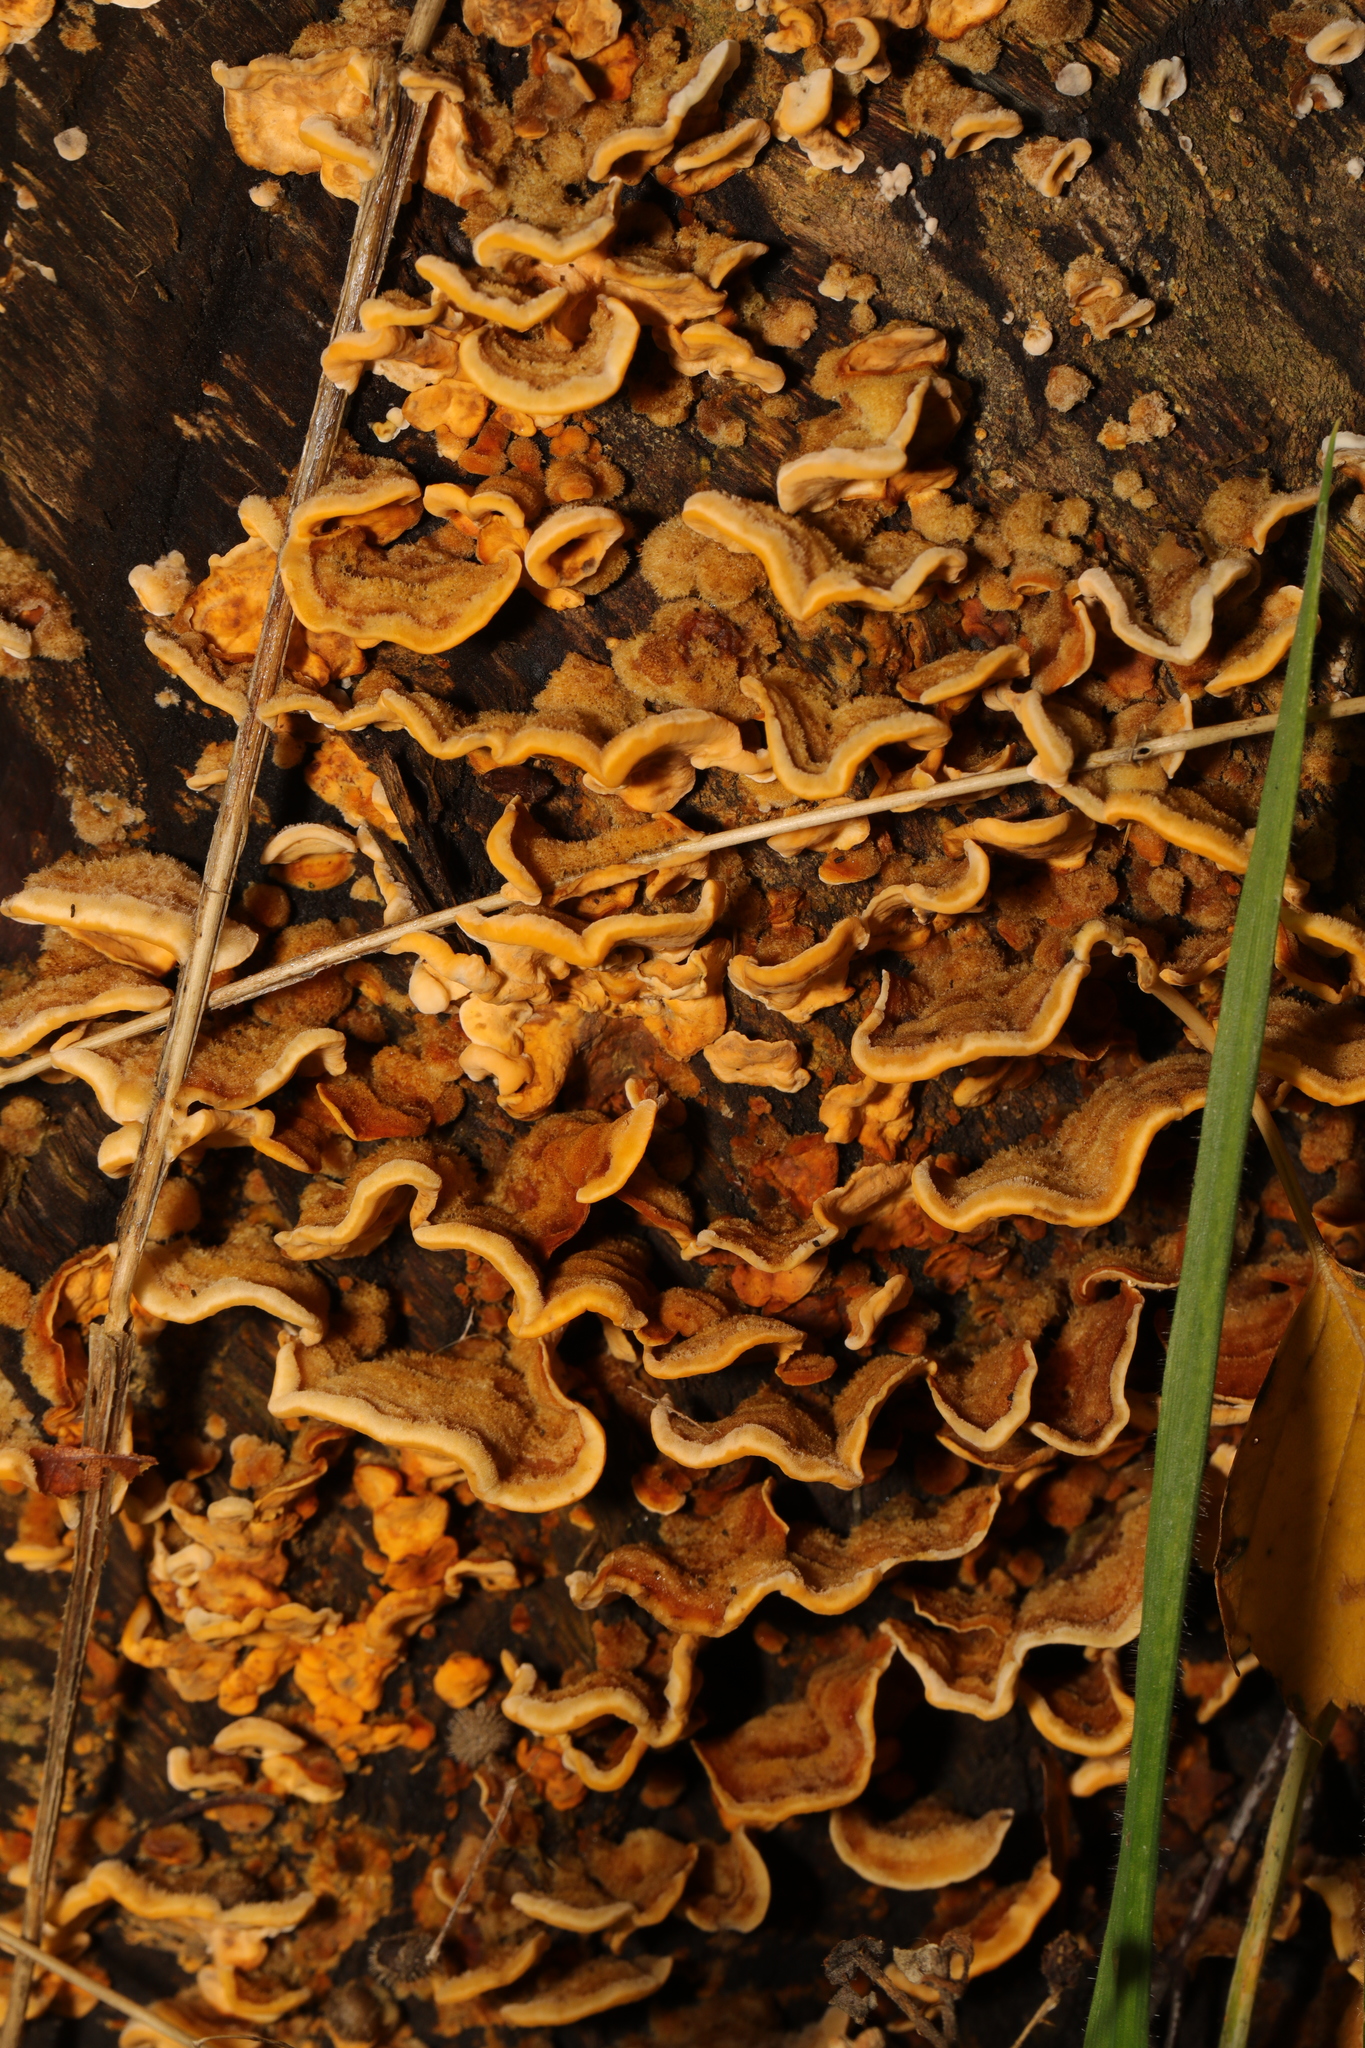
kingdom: Fungi
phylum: Basidiomycota
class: Agaricomycetes
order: Russulales
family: Stereaceae
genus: Stereum
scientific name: Stereum hirsutum
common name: Hairy curtain crust
